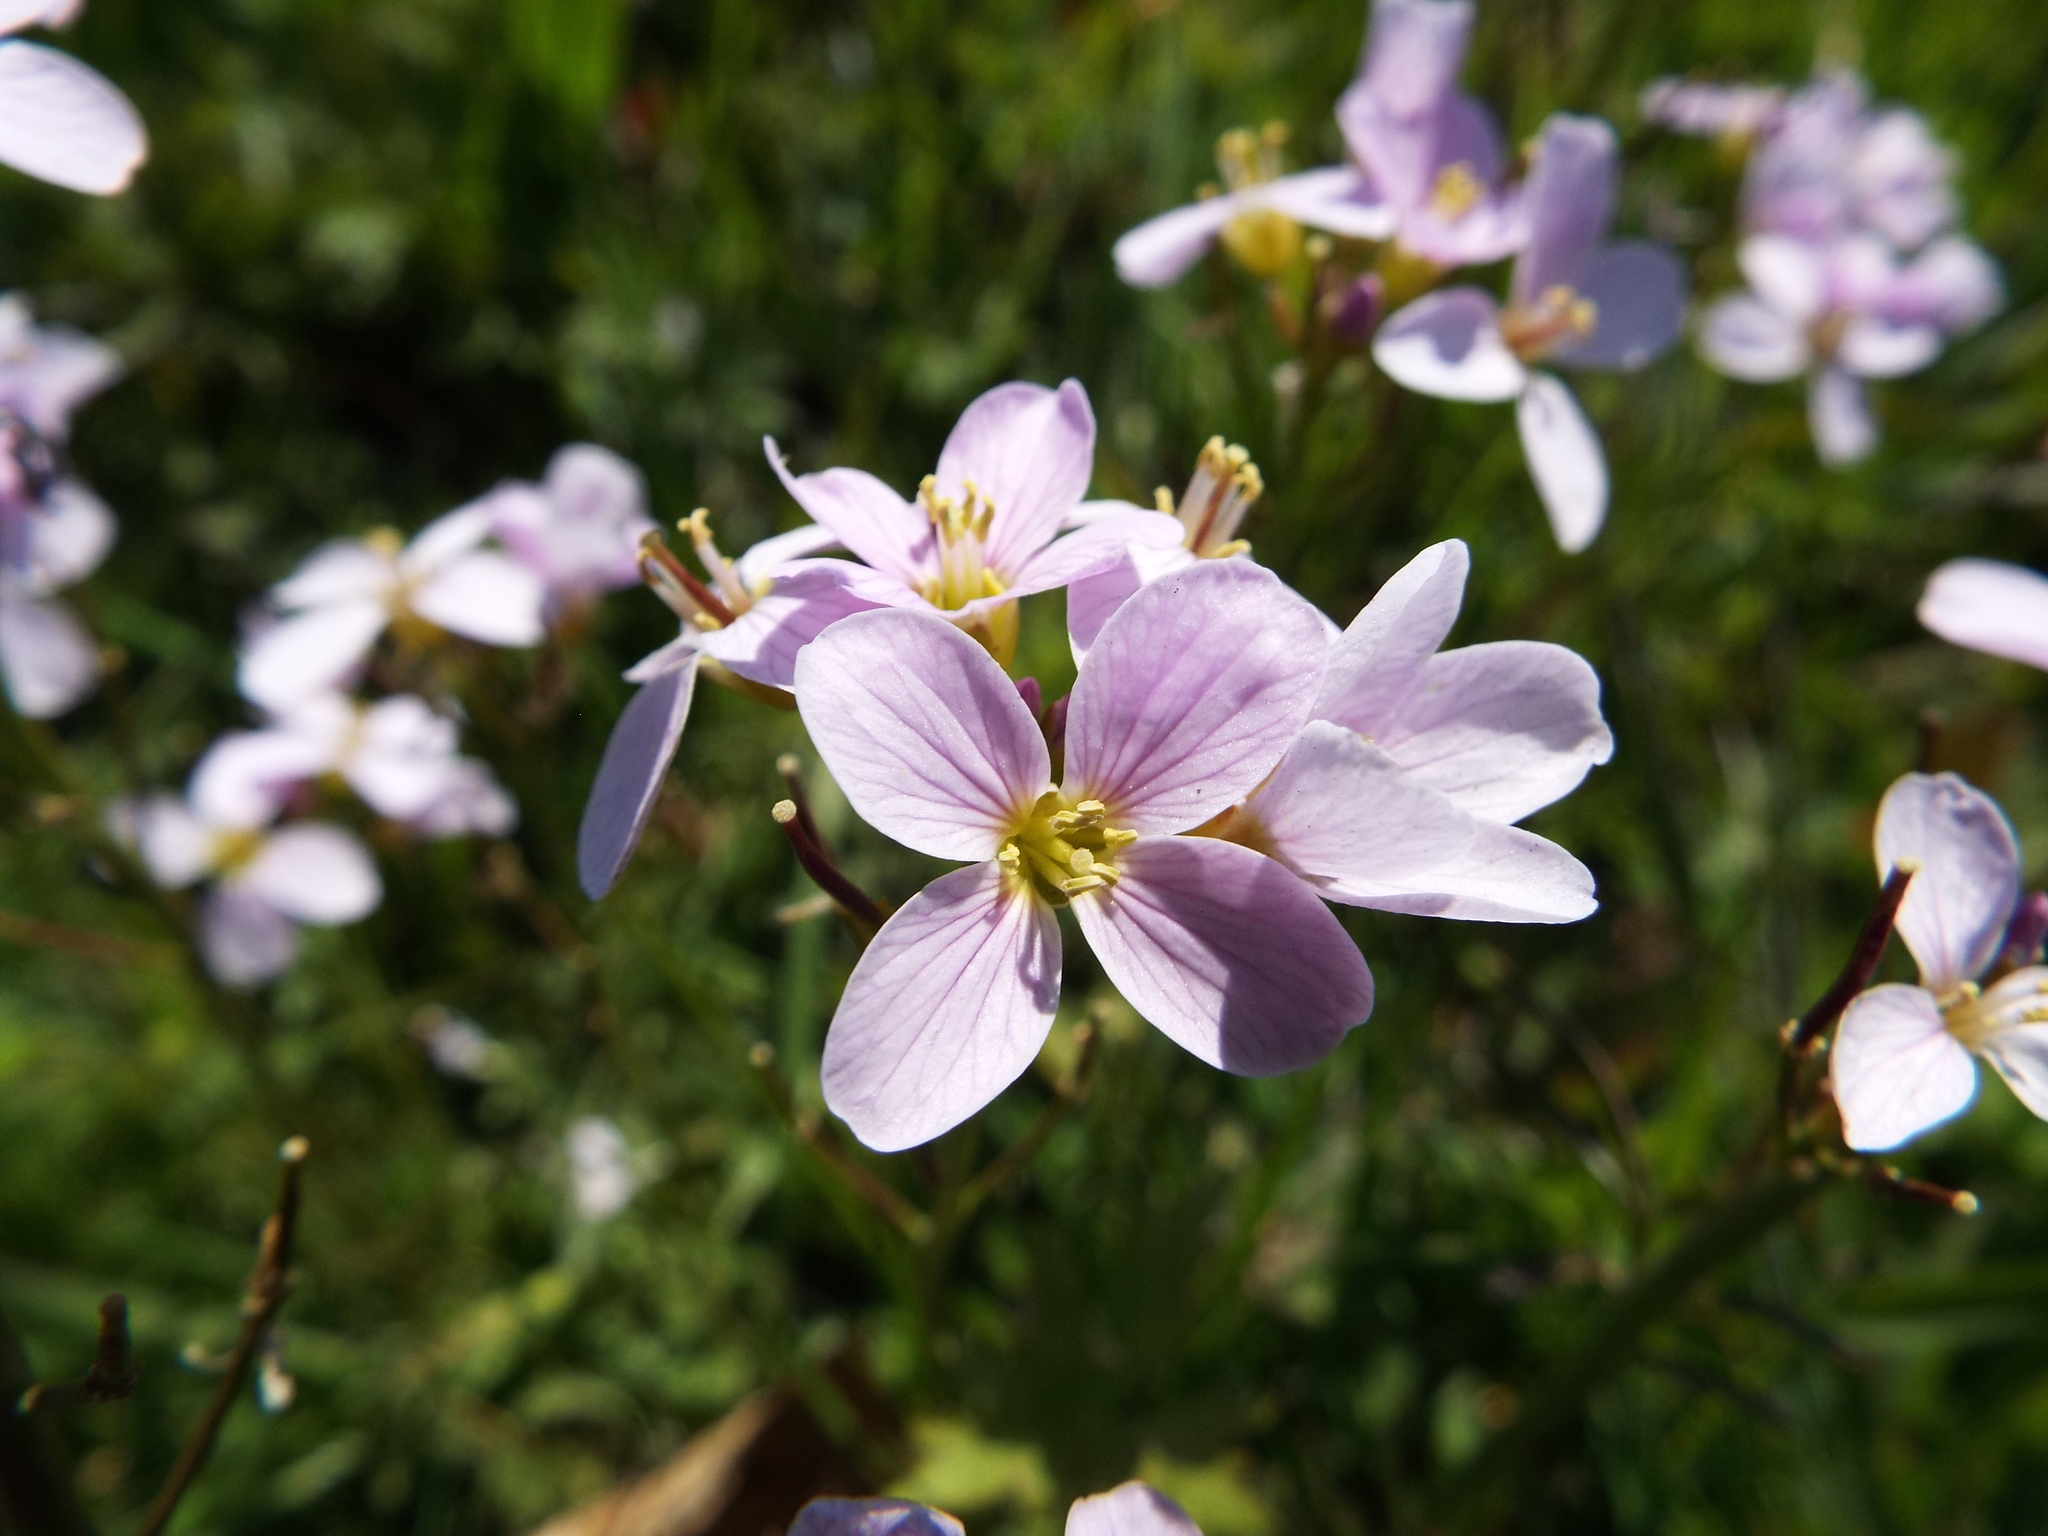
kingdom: Plantae
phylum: Tracheophyta
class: Magnoliopsida
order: Brassicales
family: Brassicaceae
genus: Cardamine
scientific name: Cardamine pratensis
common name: Cuckoo flower
